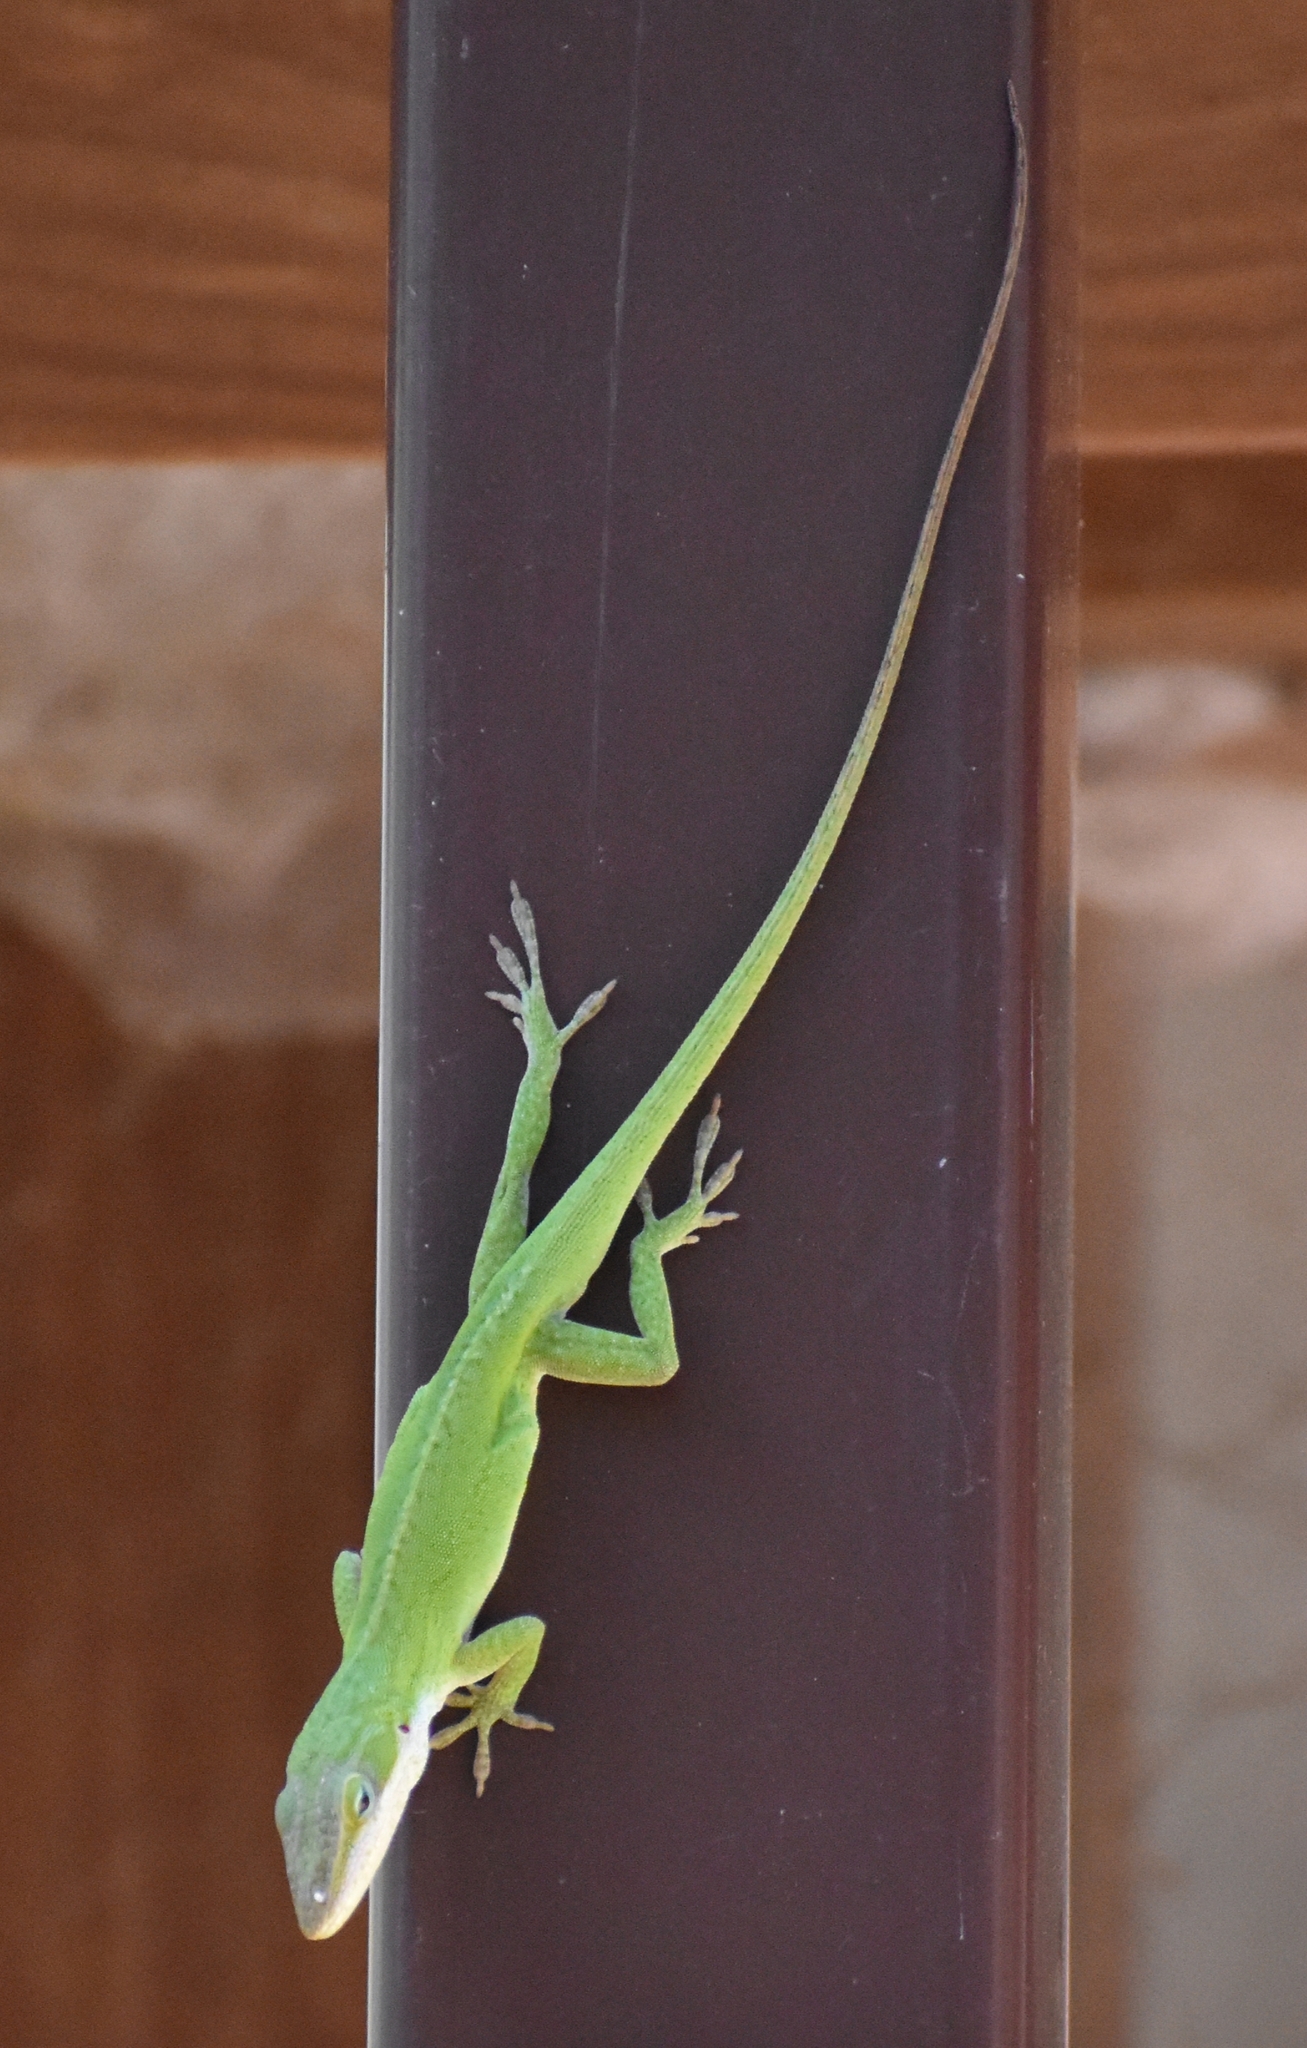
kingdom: Animalia
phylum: Chordata
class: Squamata
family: Dactyloidae
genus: Anolis
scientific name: Anolis carolinensis
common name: Green anole
